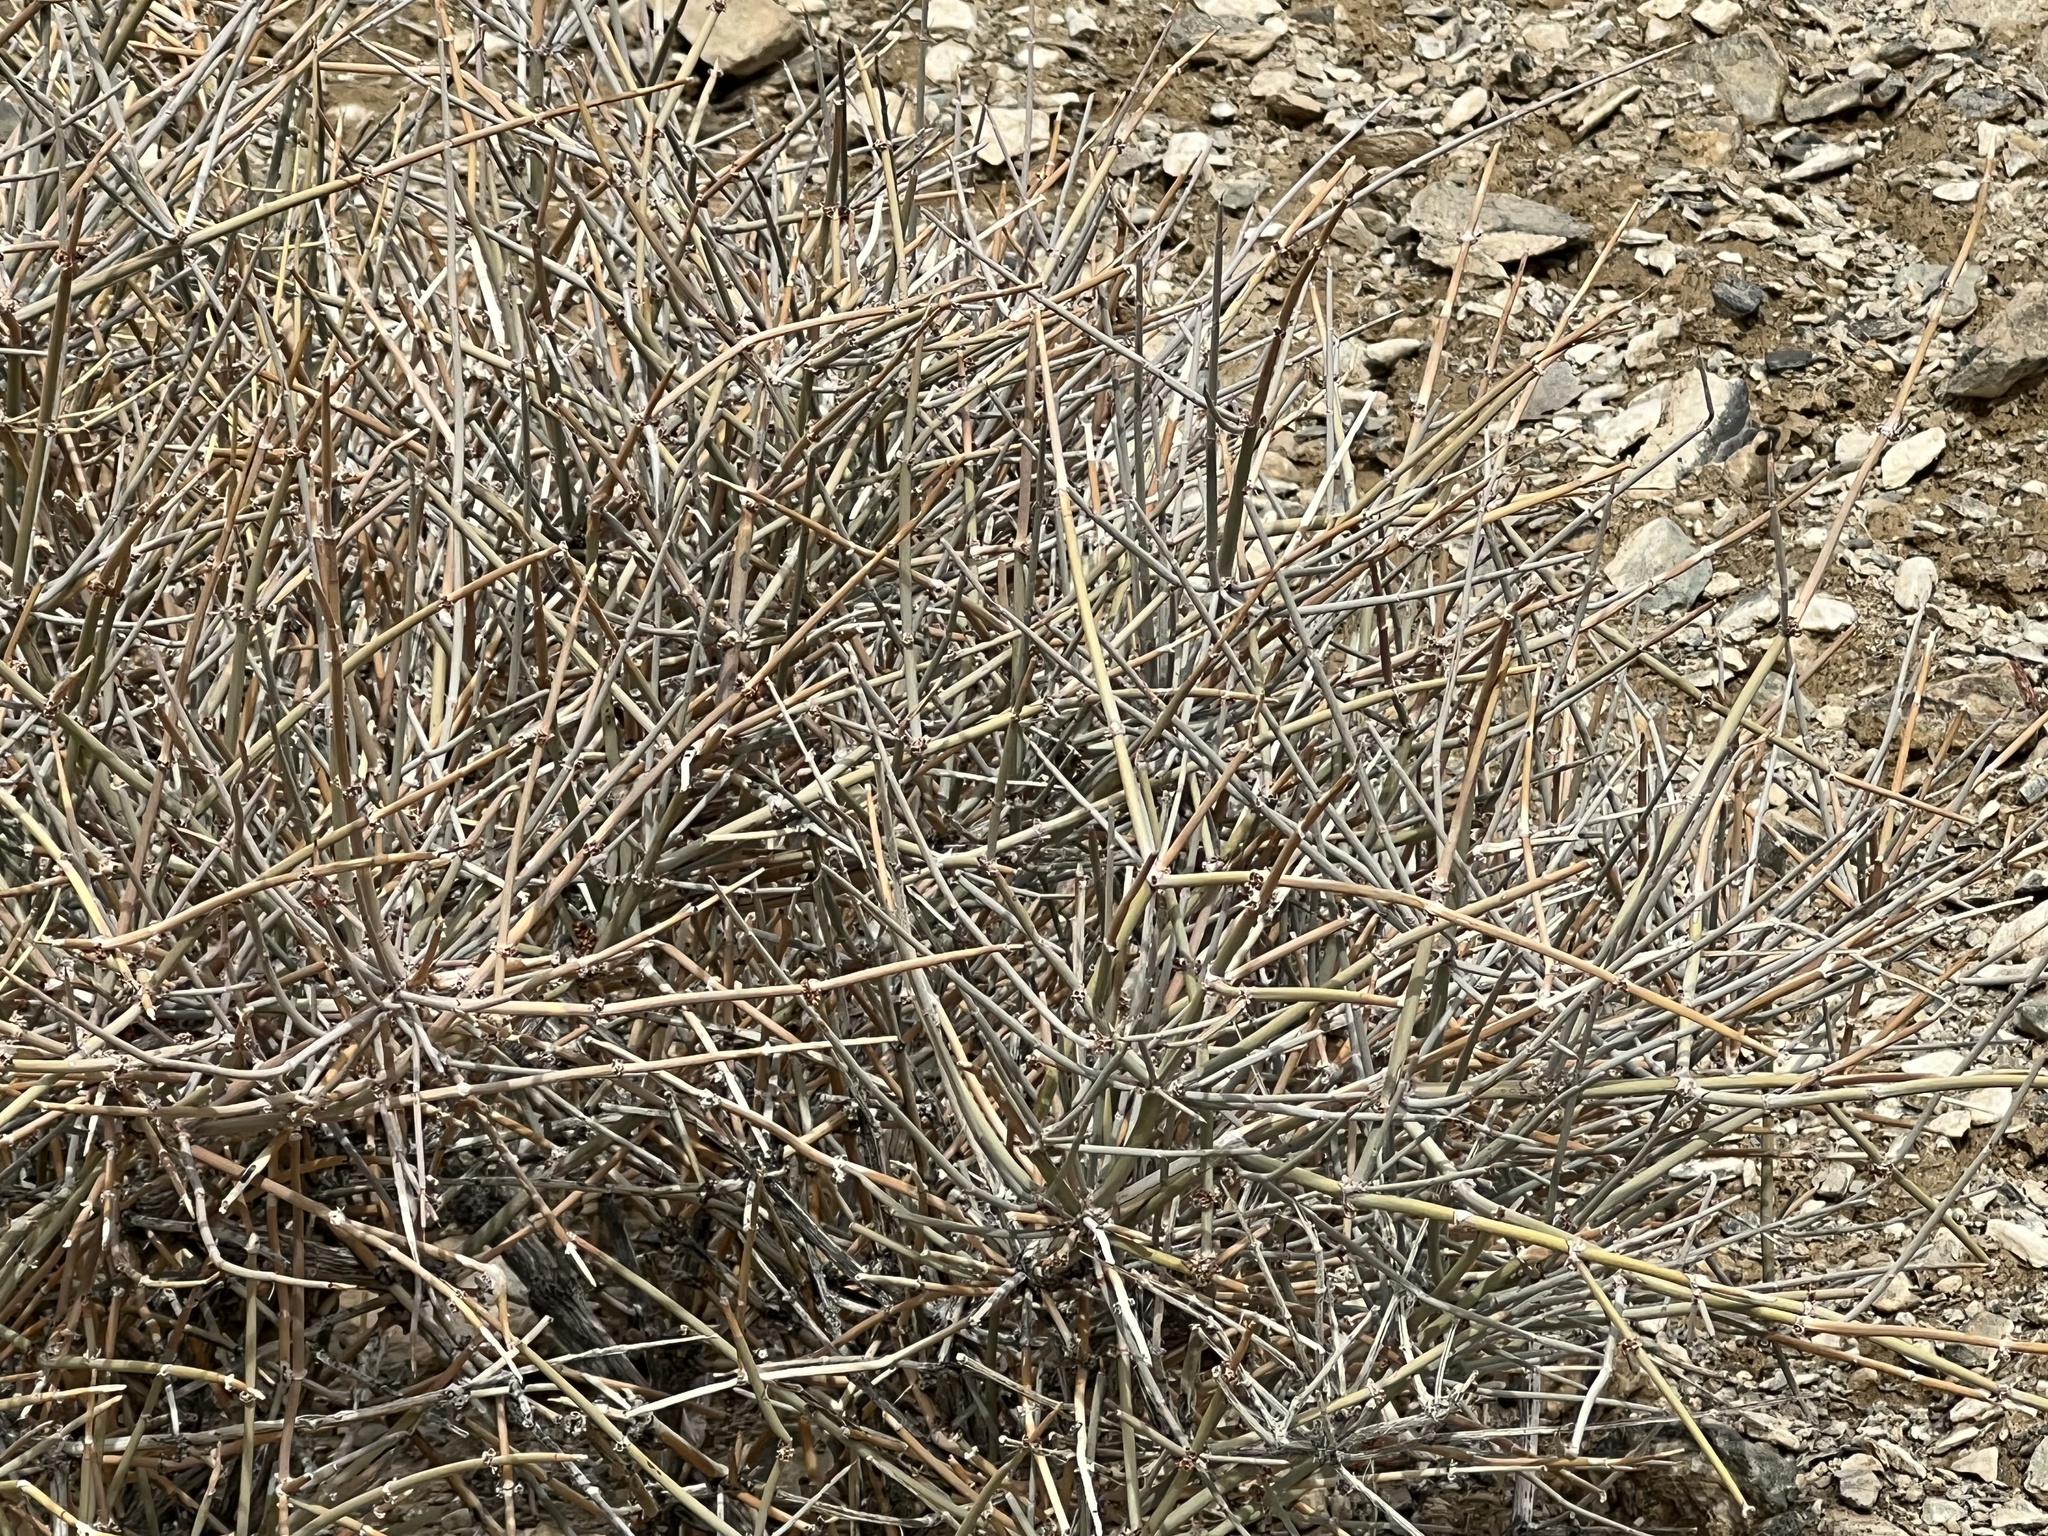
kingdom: Plantae
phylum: Tracheophyta
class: Gnetopsida
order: Ephedrales
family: Ephedraceae
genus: Ephedra
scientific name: Ephedra nevadensis
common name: Gray ephedra
